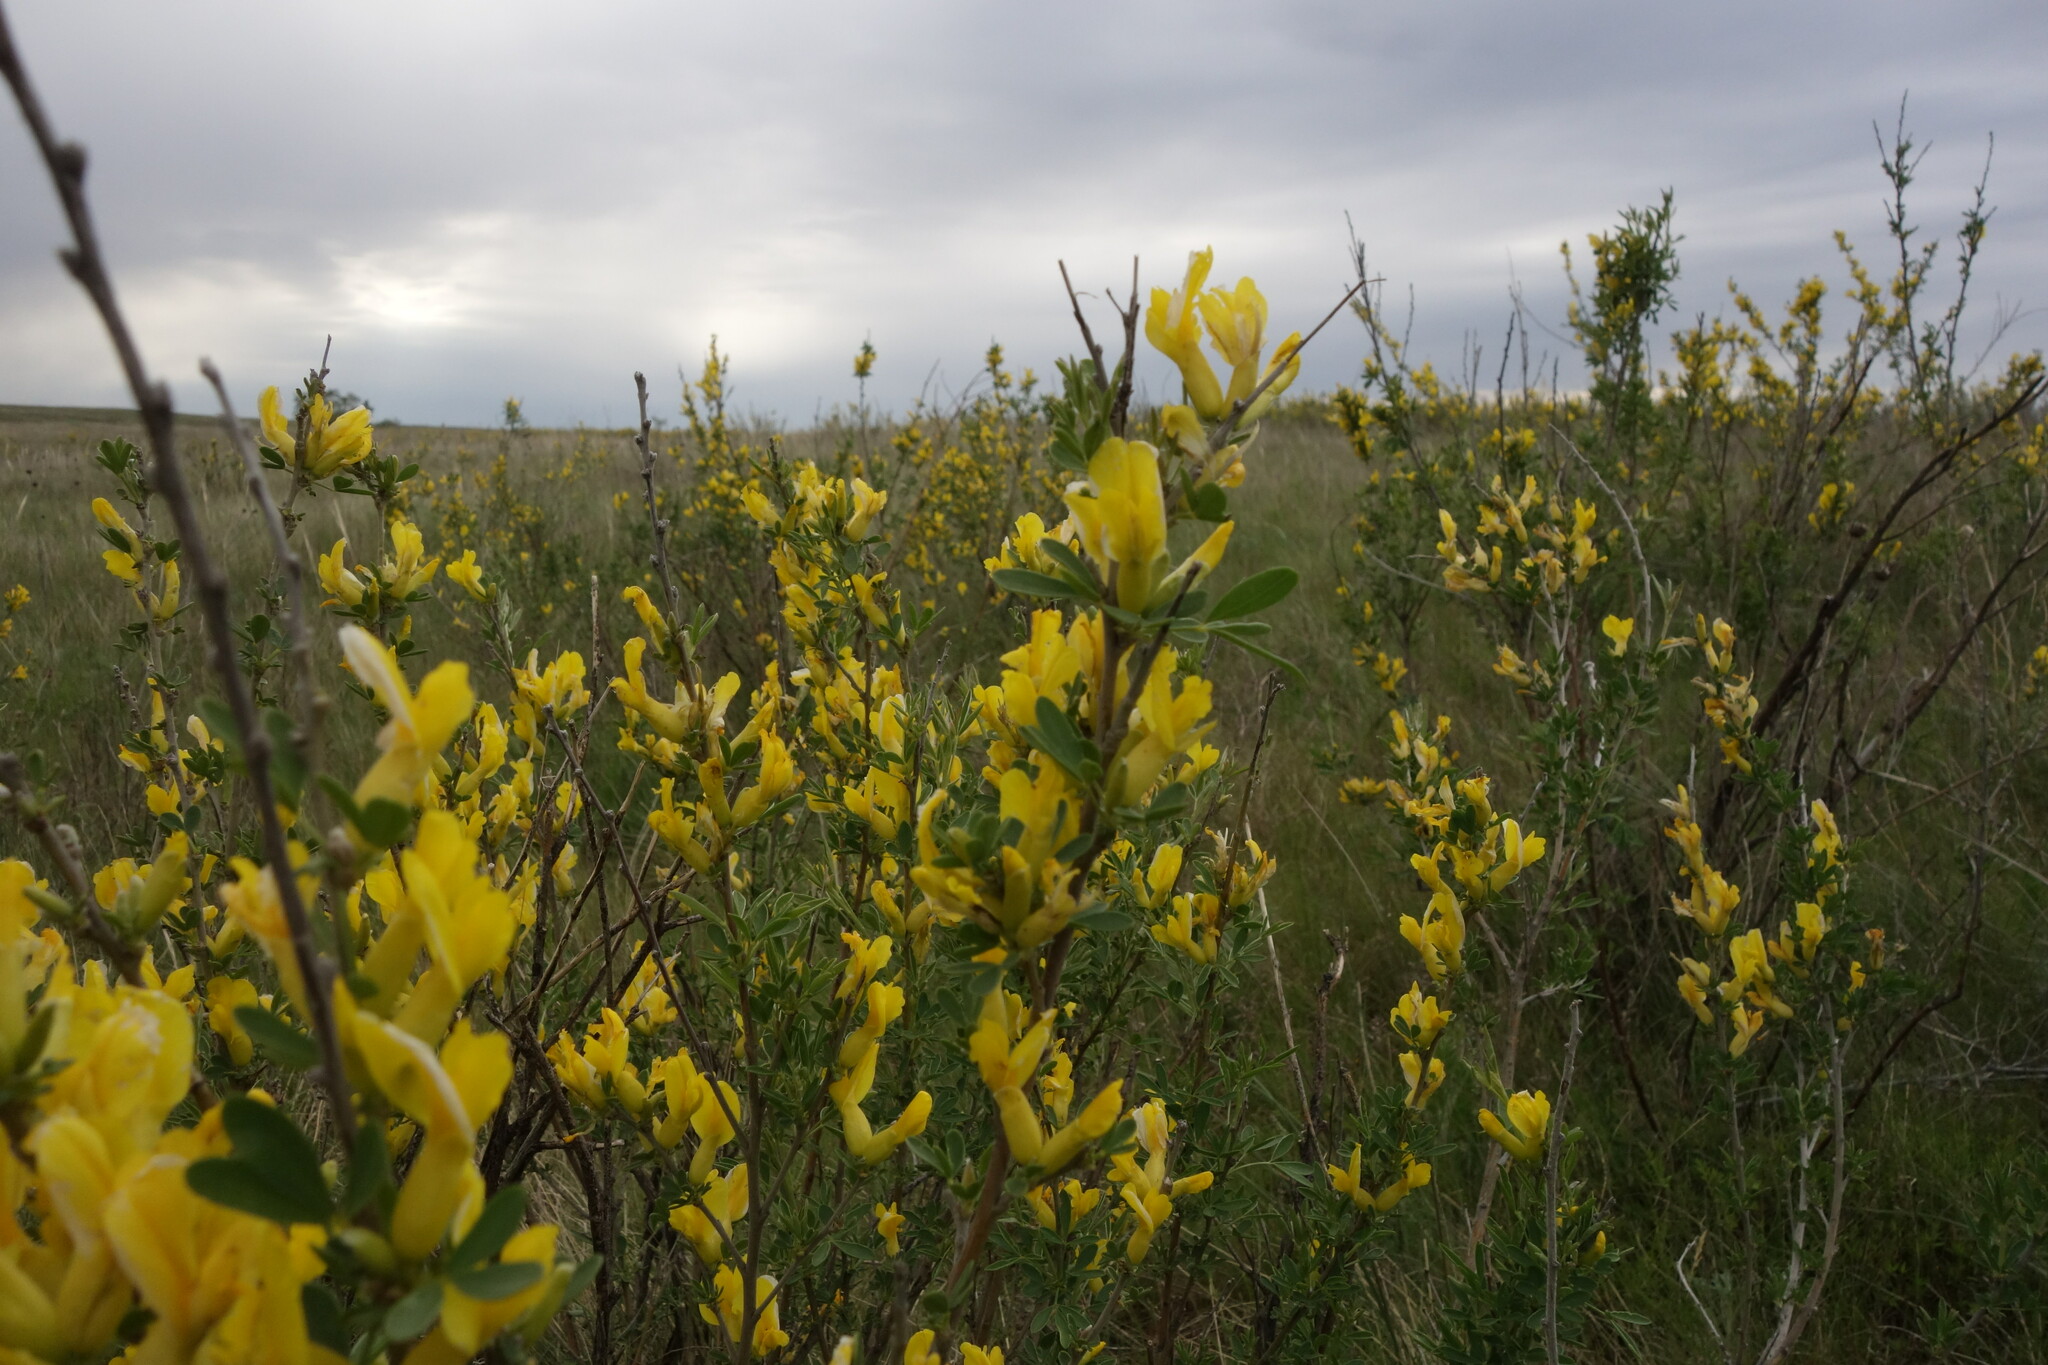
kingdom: Plantae
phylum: Tracheophyta
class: Magnoliopsida
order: Fabales
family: Fabaceae
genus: Chamaecytisus
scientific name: Chamaecytisus ruthenicus
